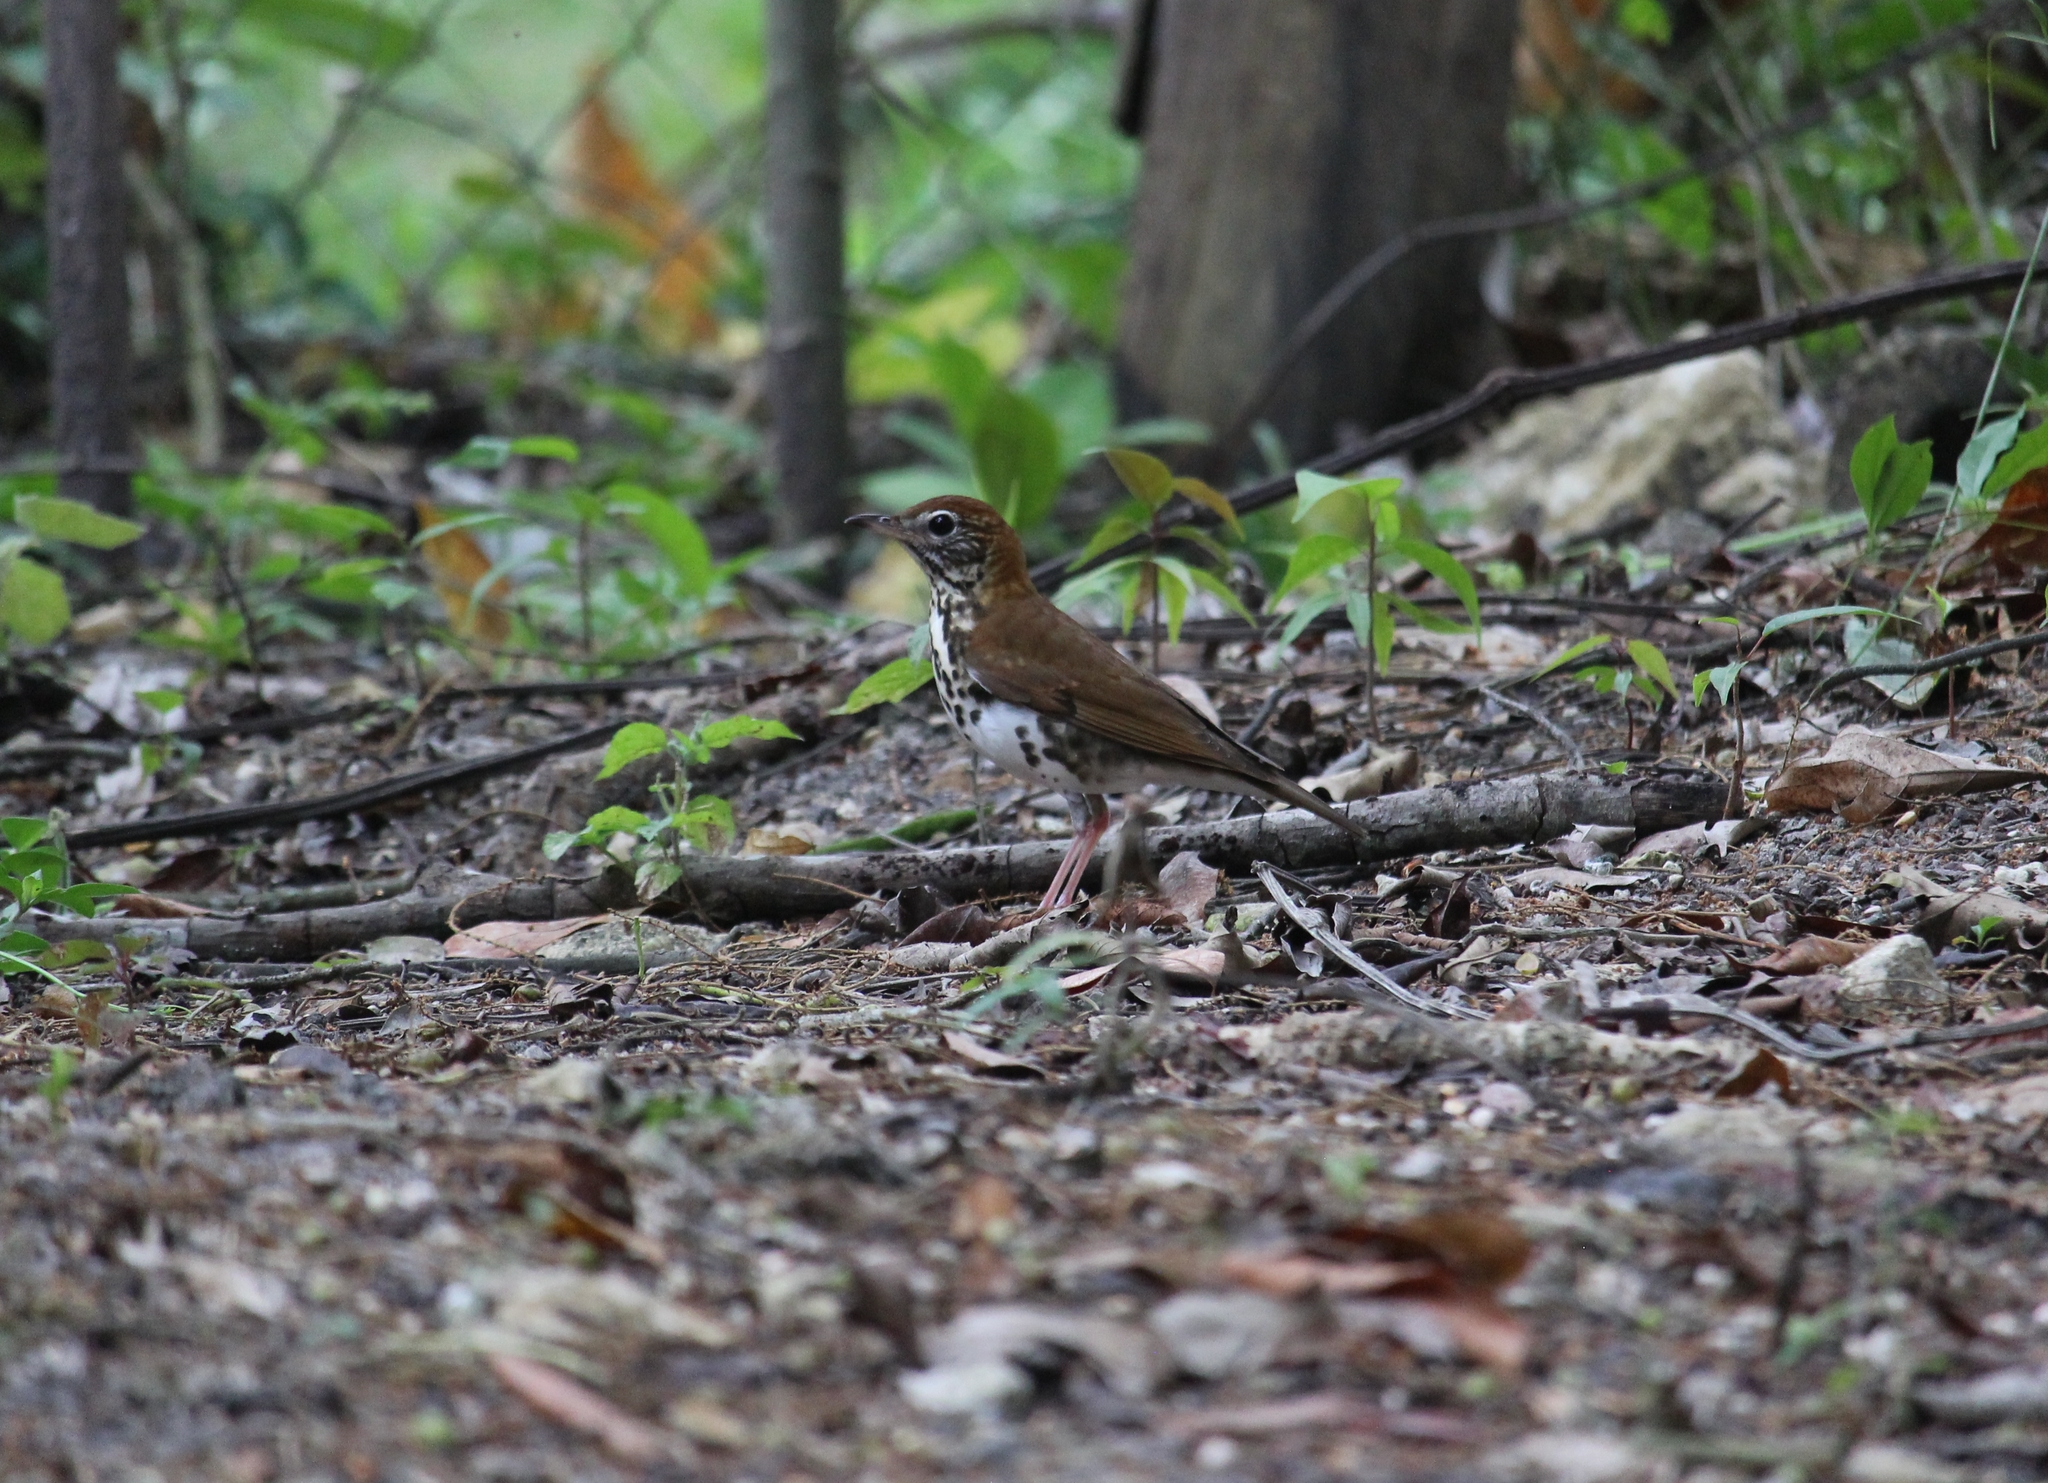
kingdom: Animalia
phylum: Chordata
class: Aves
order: Passeriformes
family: Turdidae
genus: Hylocichla
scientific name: Hylocichla mustelina
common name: Wood thrush
